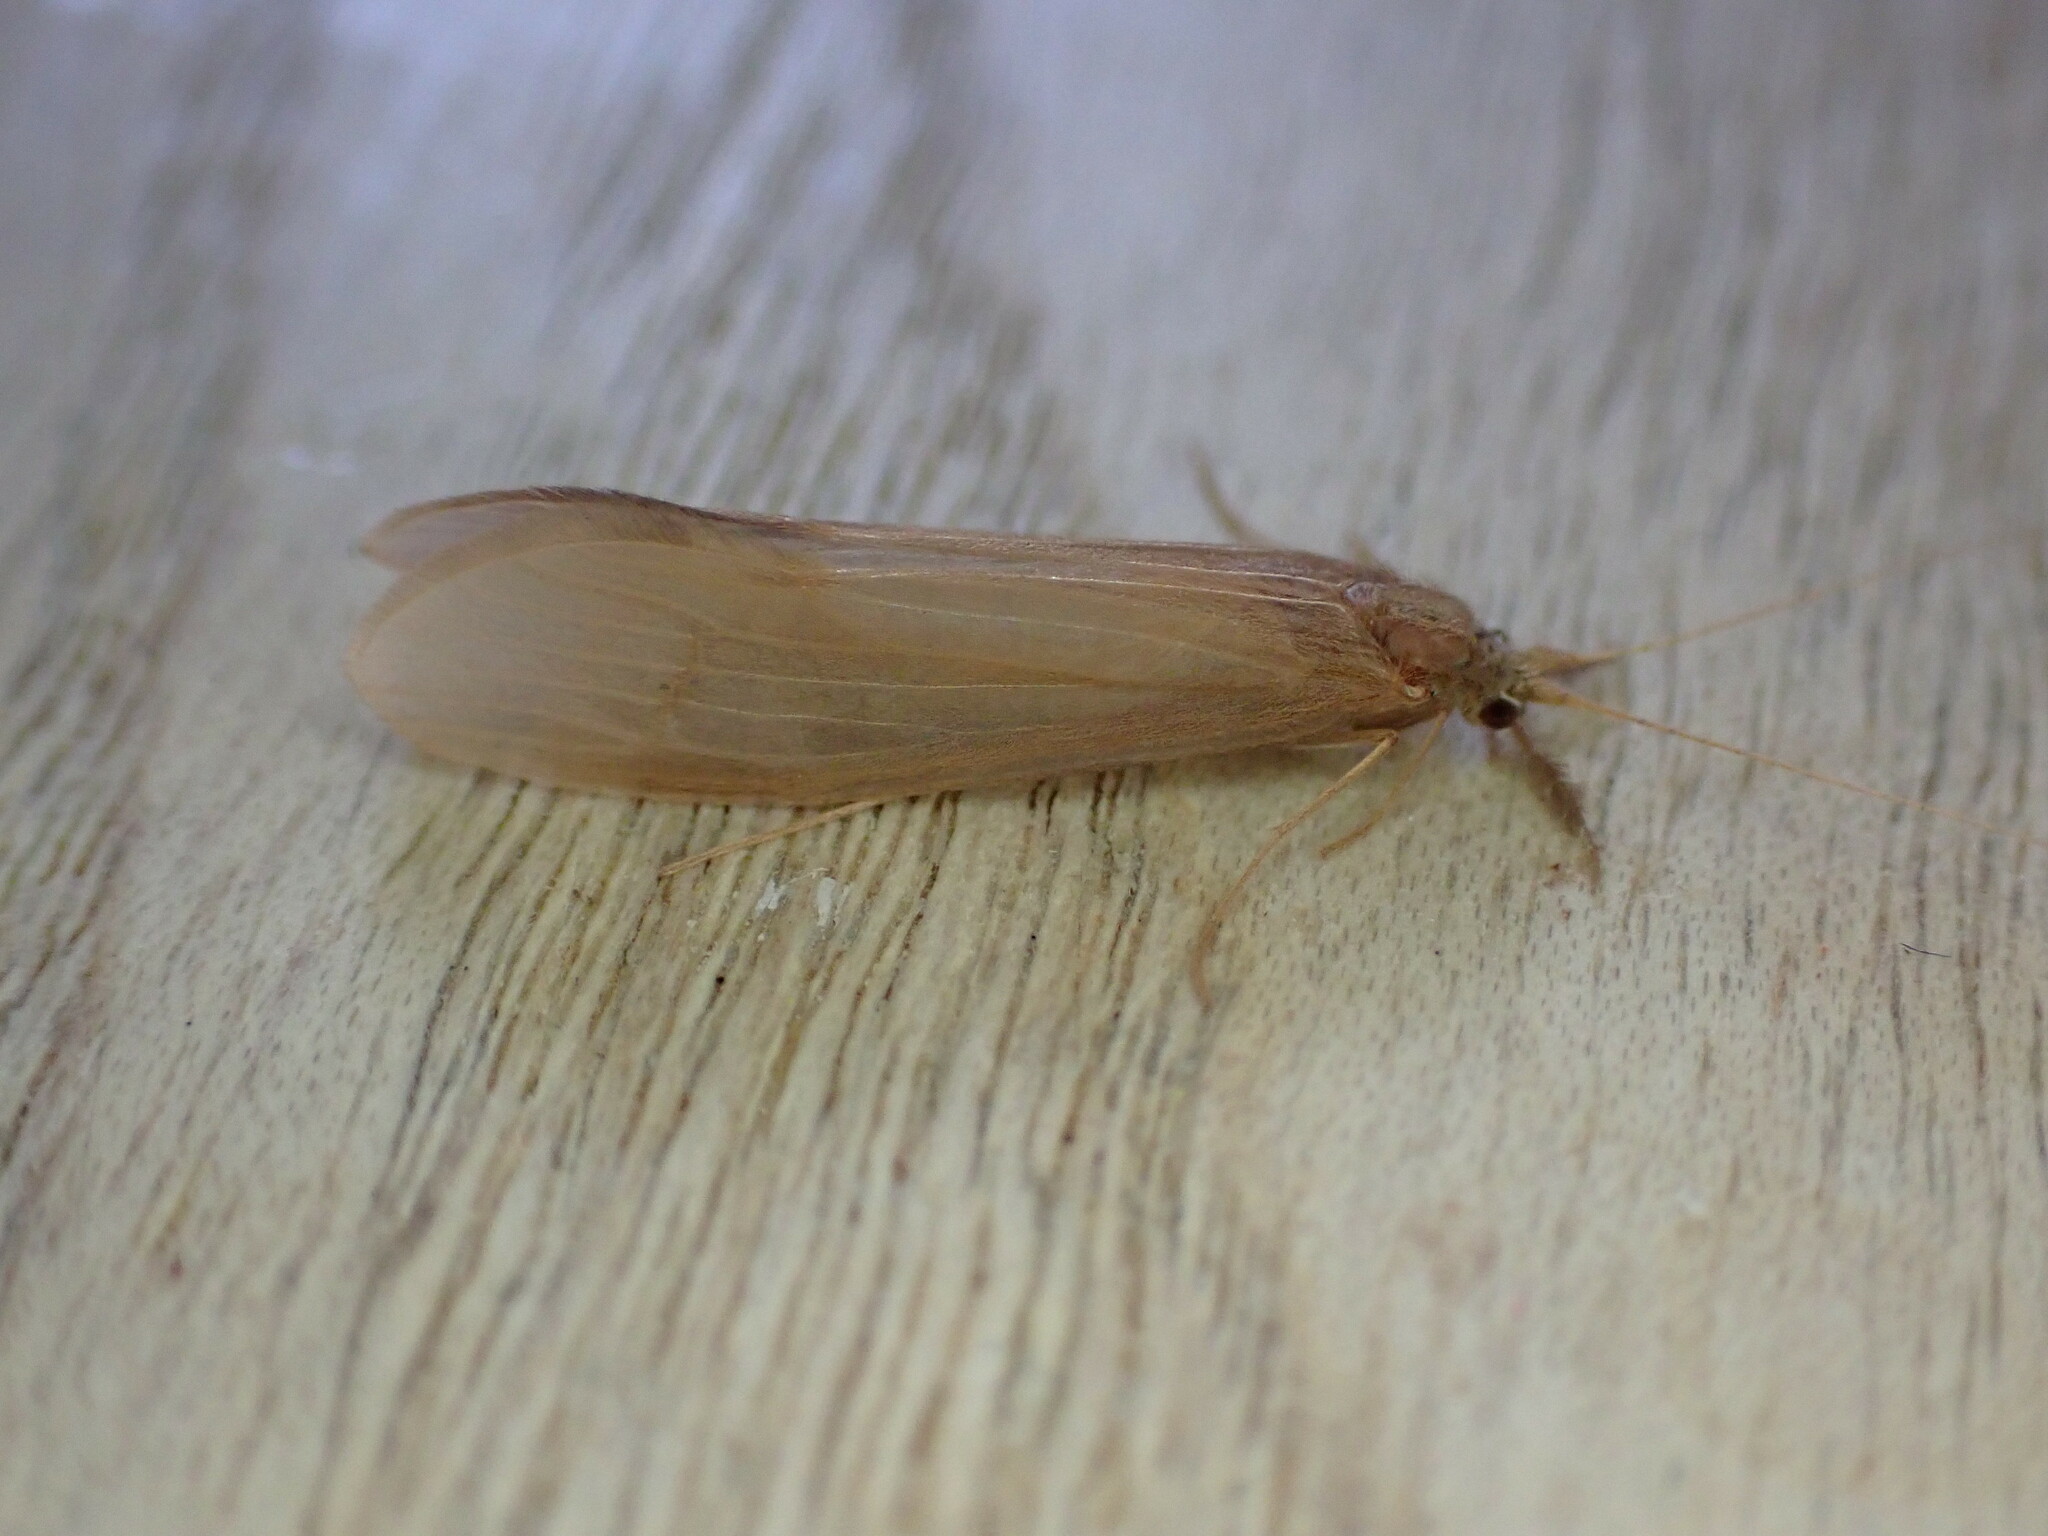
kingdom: Animalia
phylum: Arthropoda
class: Insecta
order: Trichoptera
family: Leptoceridae
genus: Oecetis
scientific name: Oecetis ochracea
